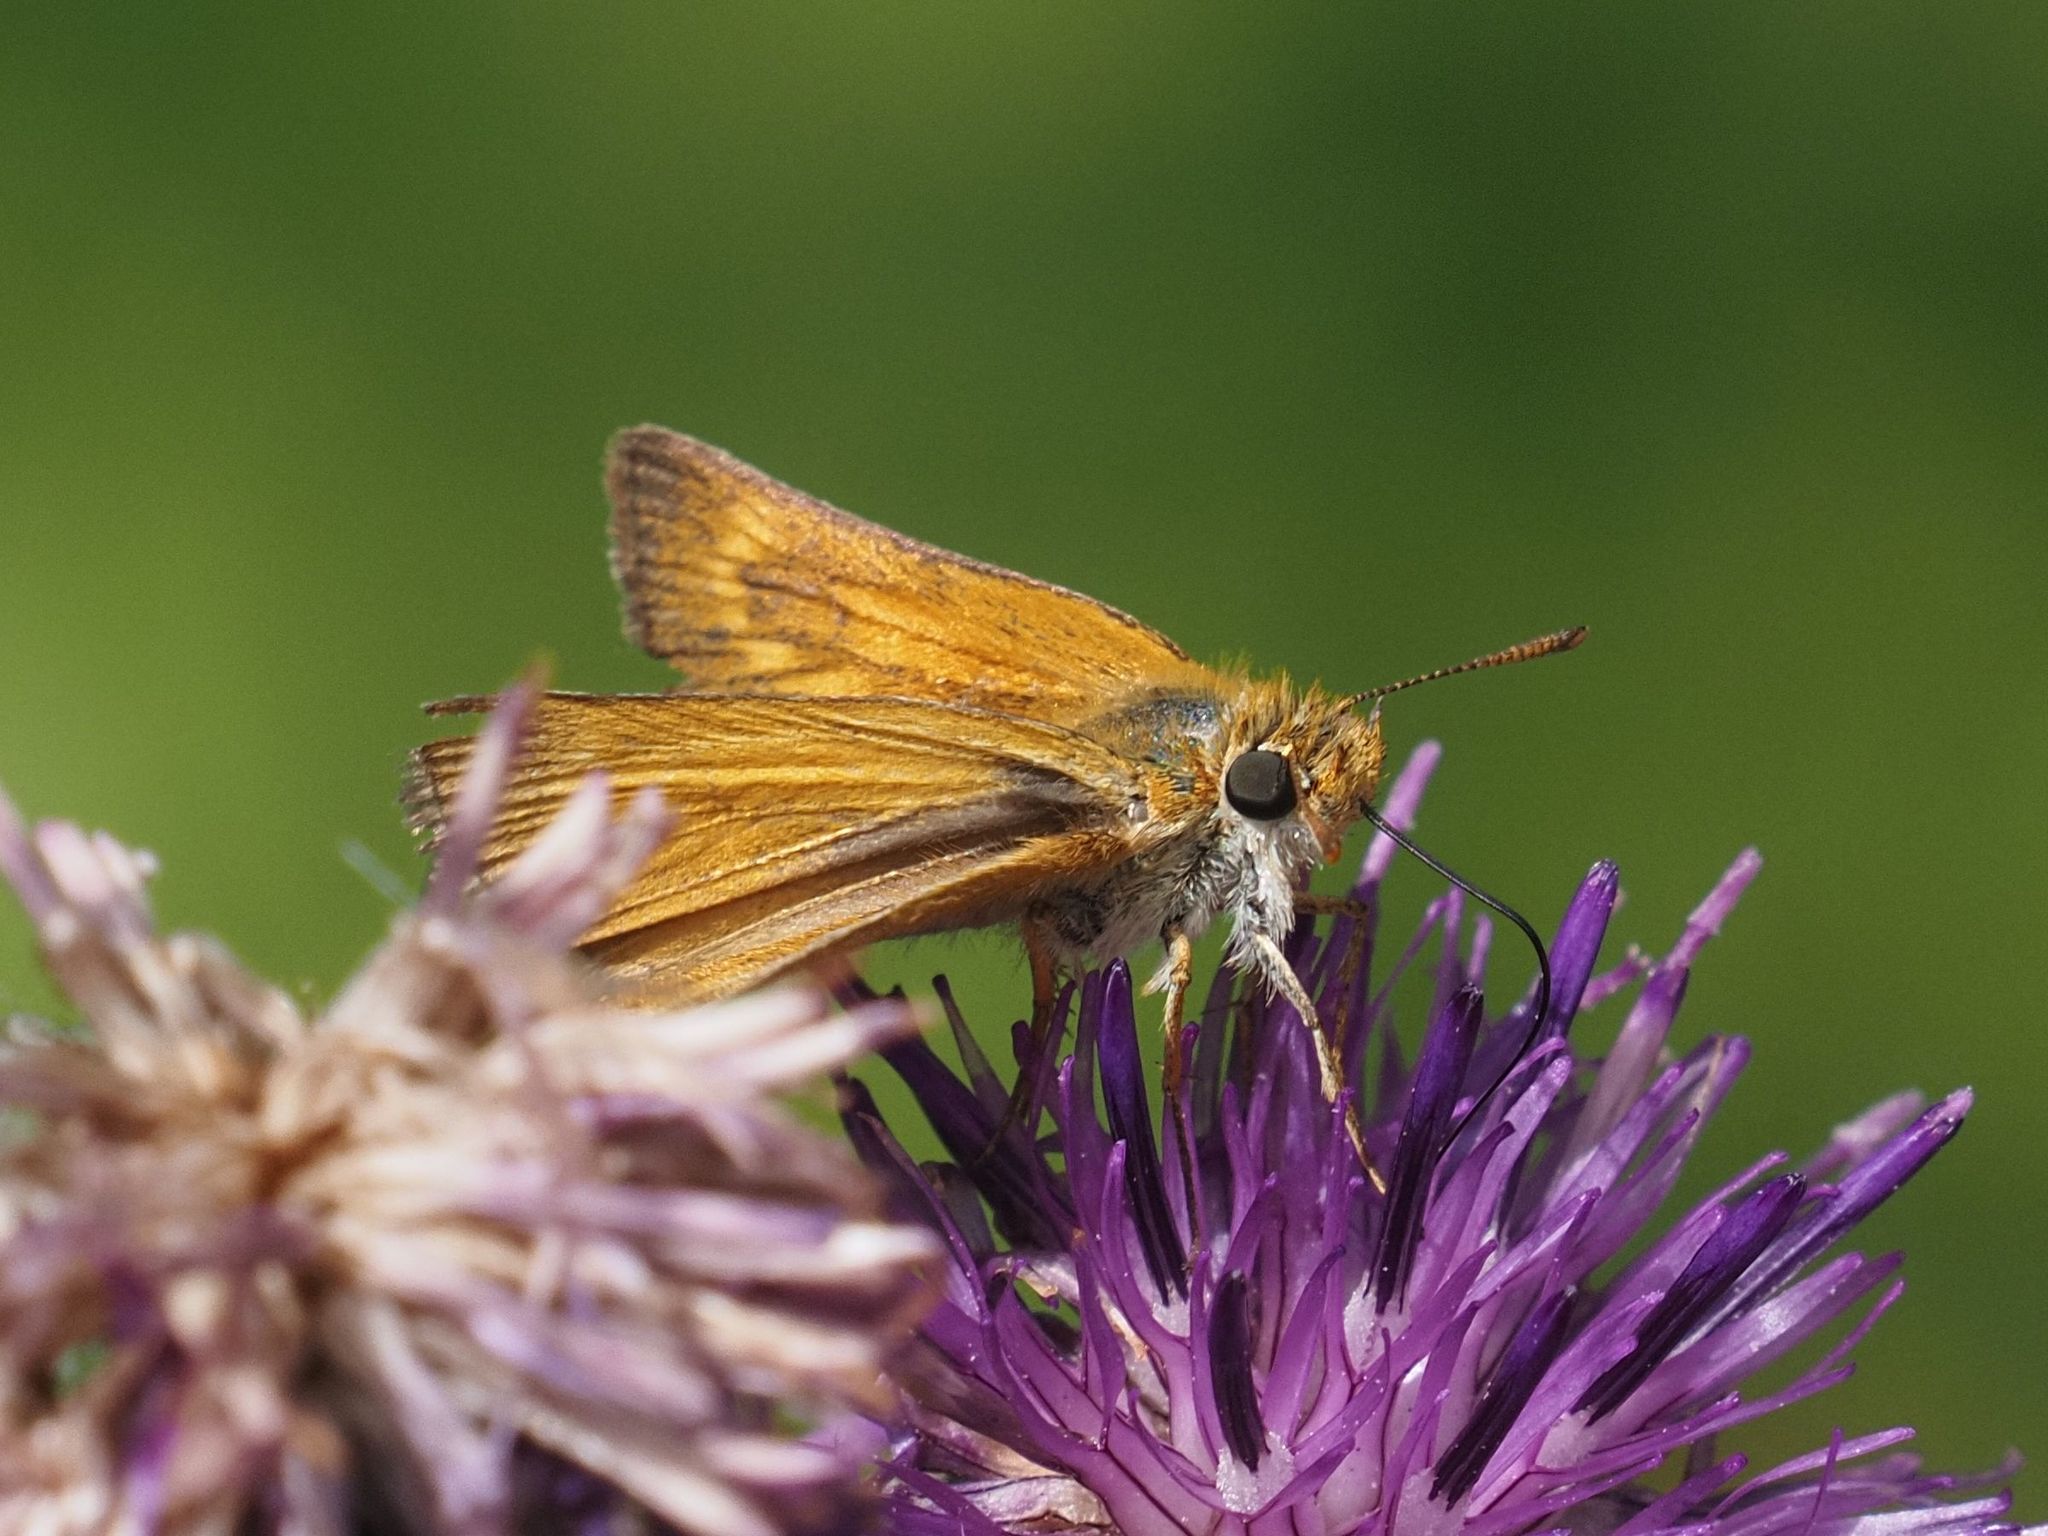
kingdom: Animalia
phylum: Arthropoda
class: Insecta
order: Lepidoptera
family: Hesperiidae
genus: Thymelicus
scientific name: Thymelicus acteon
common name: Lulworth skipper
